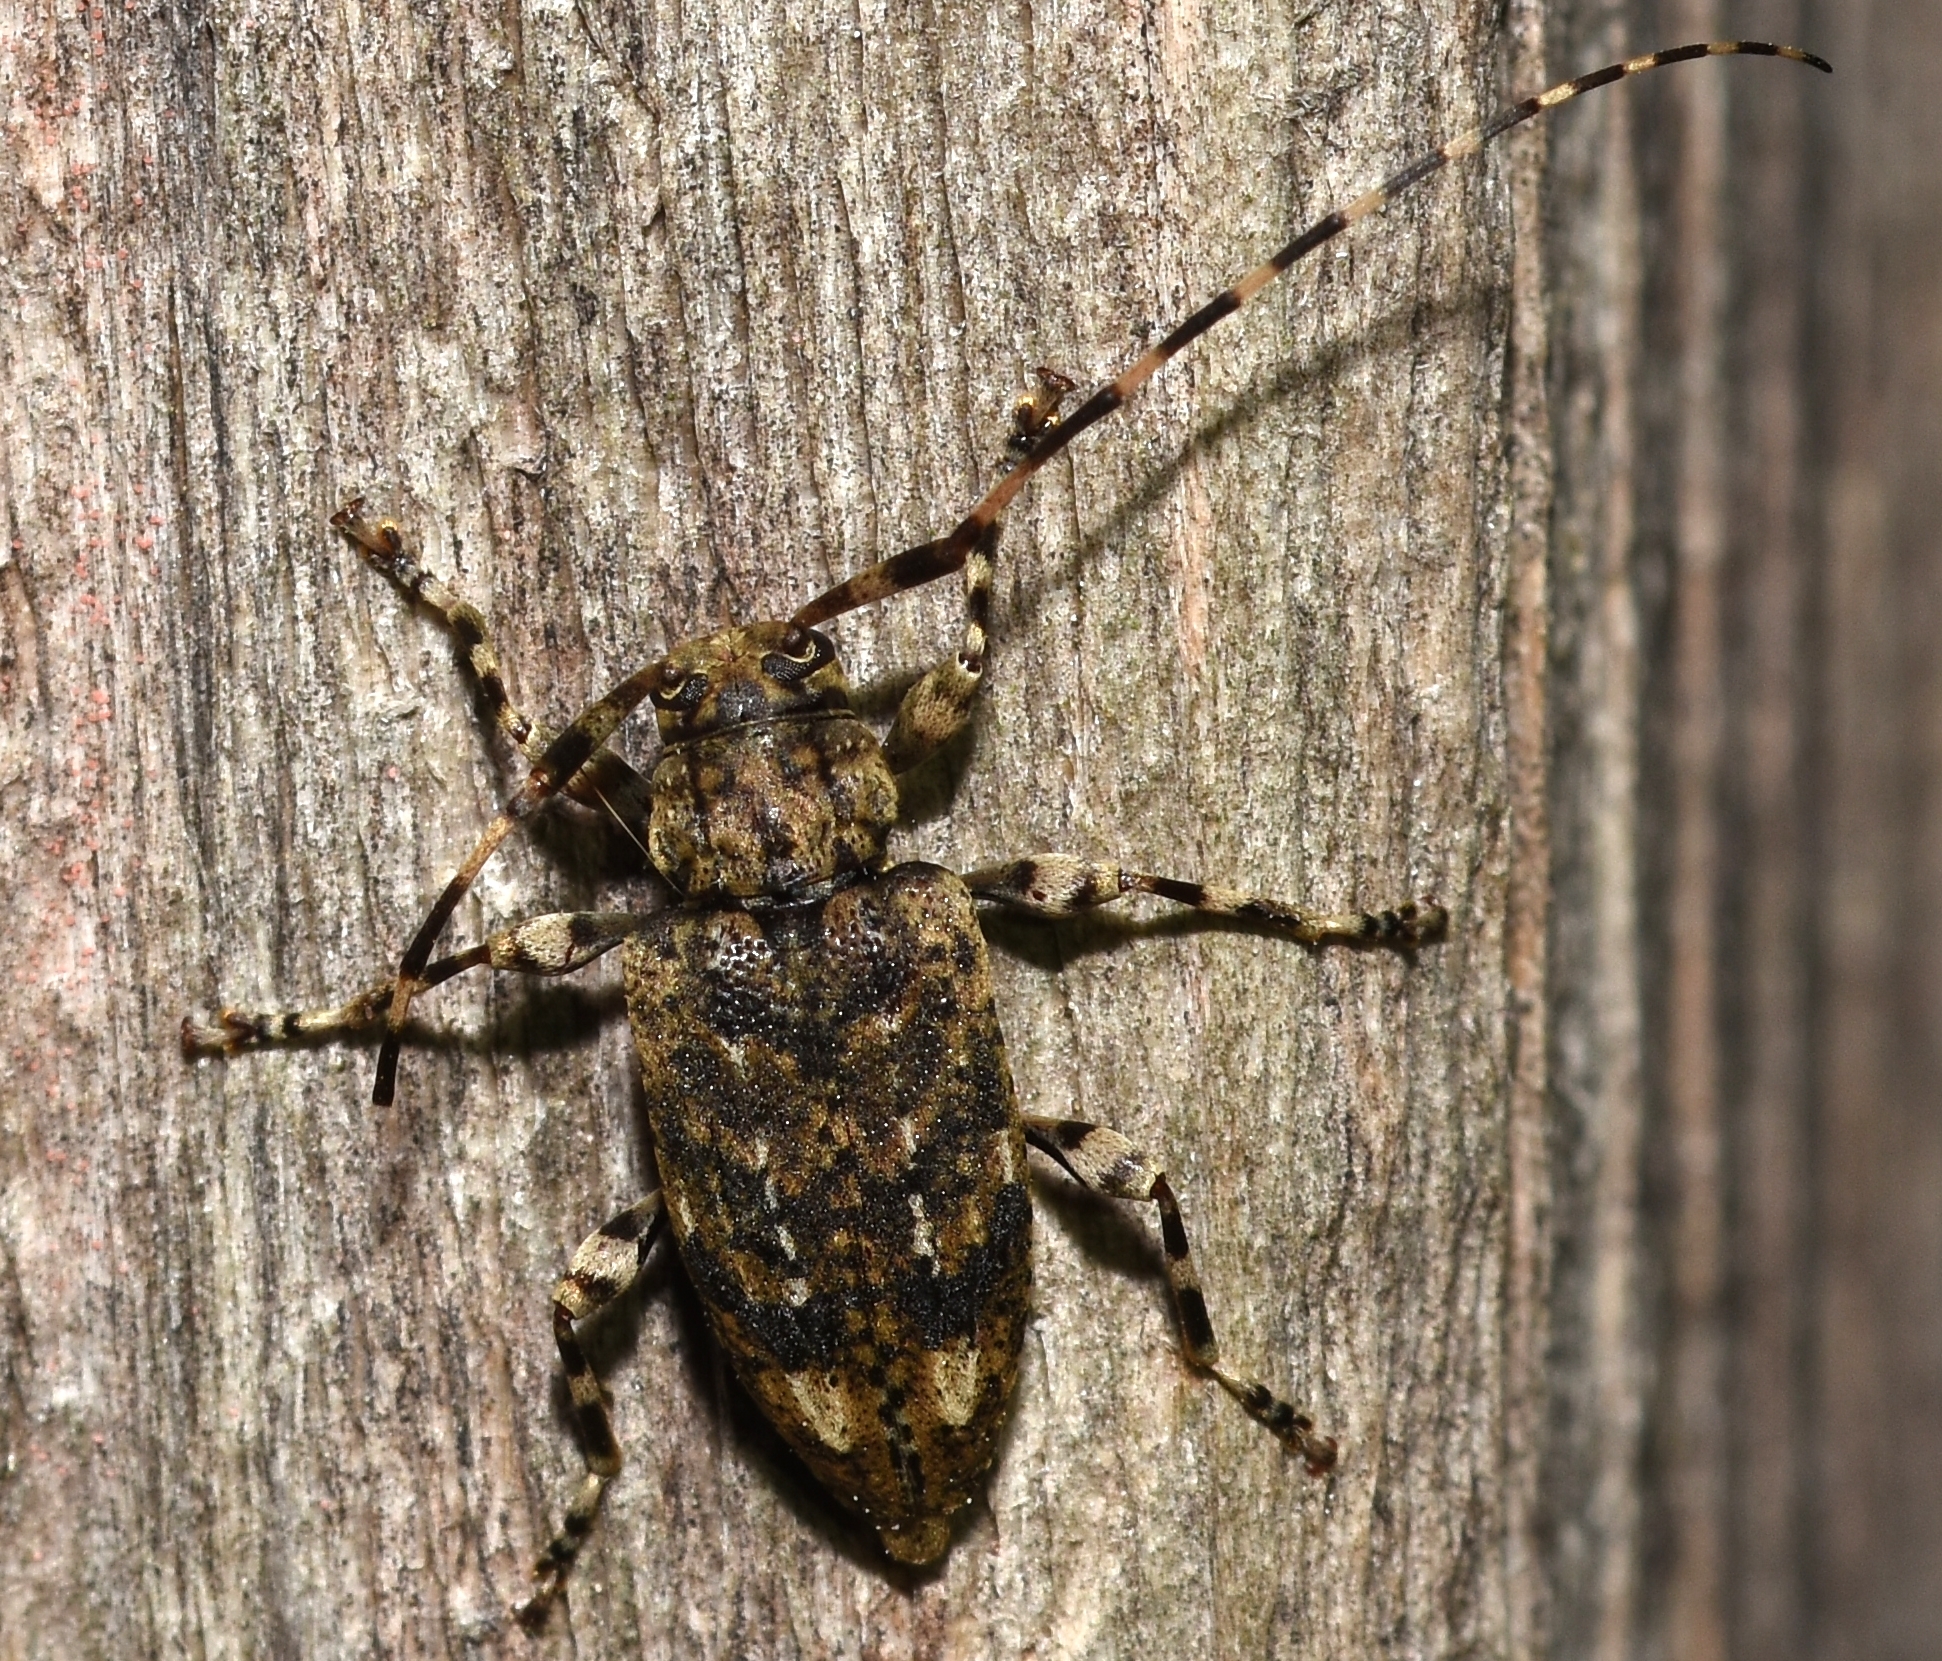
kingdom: Animalia
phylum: Arthropoda
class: Insecta
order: Coleoptera
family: Cerambycidae
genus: Astyleiopus
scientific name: Astyleiopus variegatus
